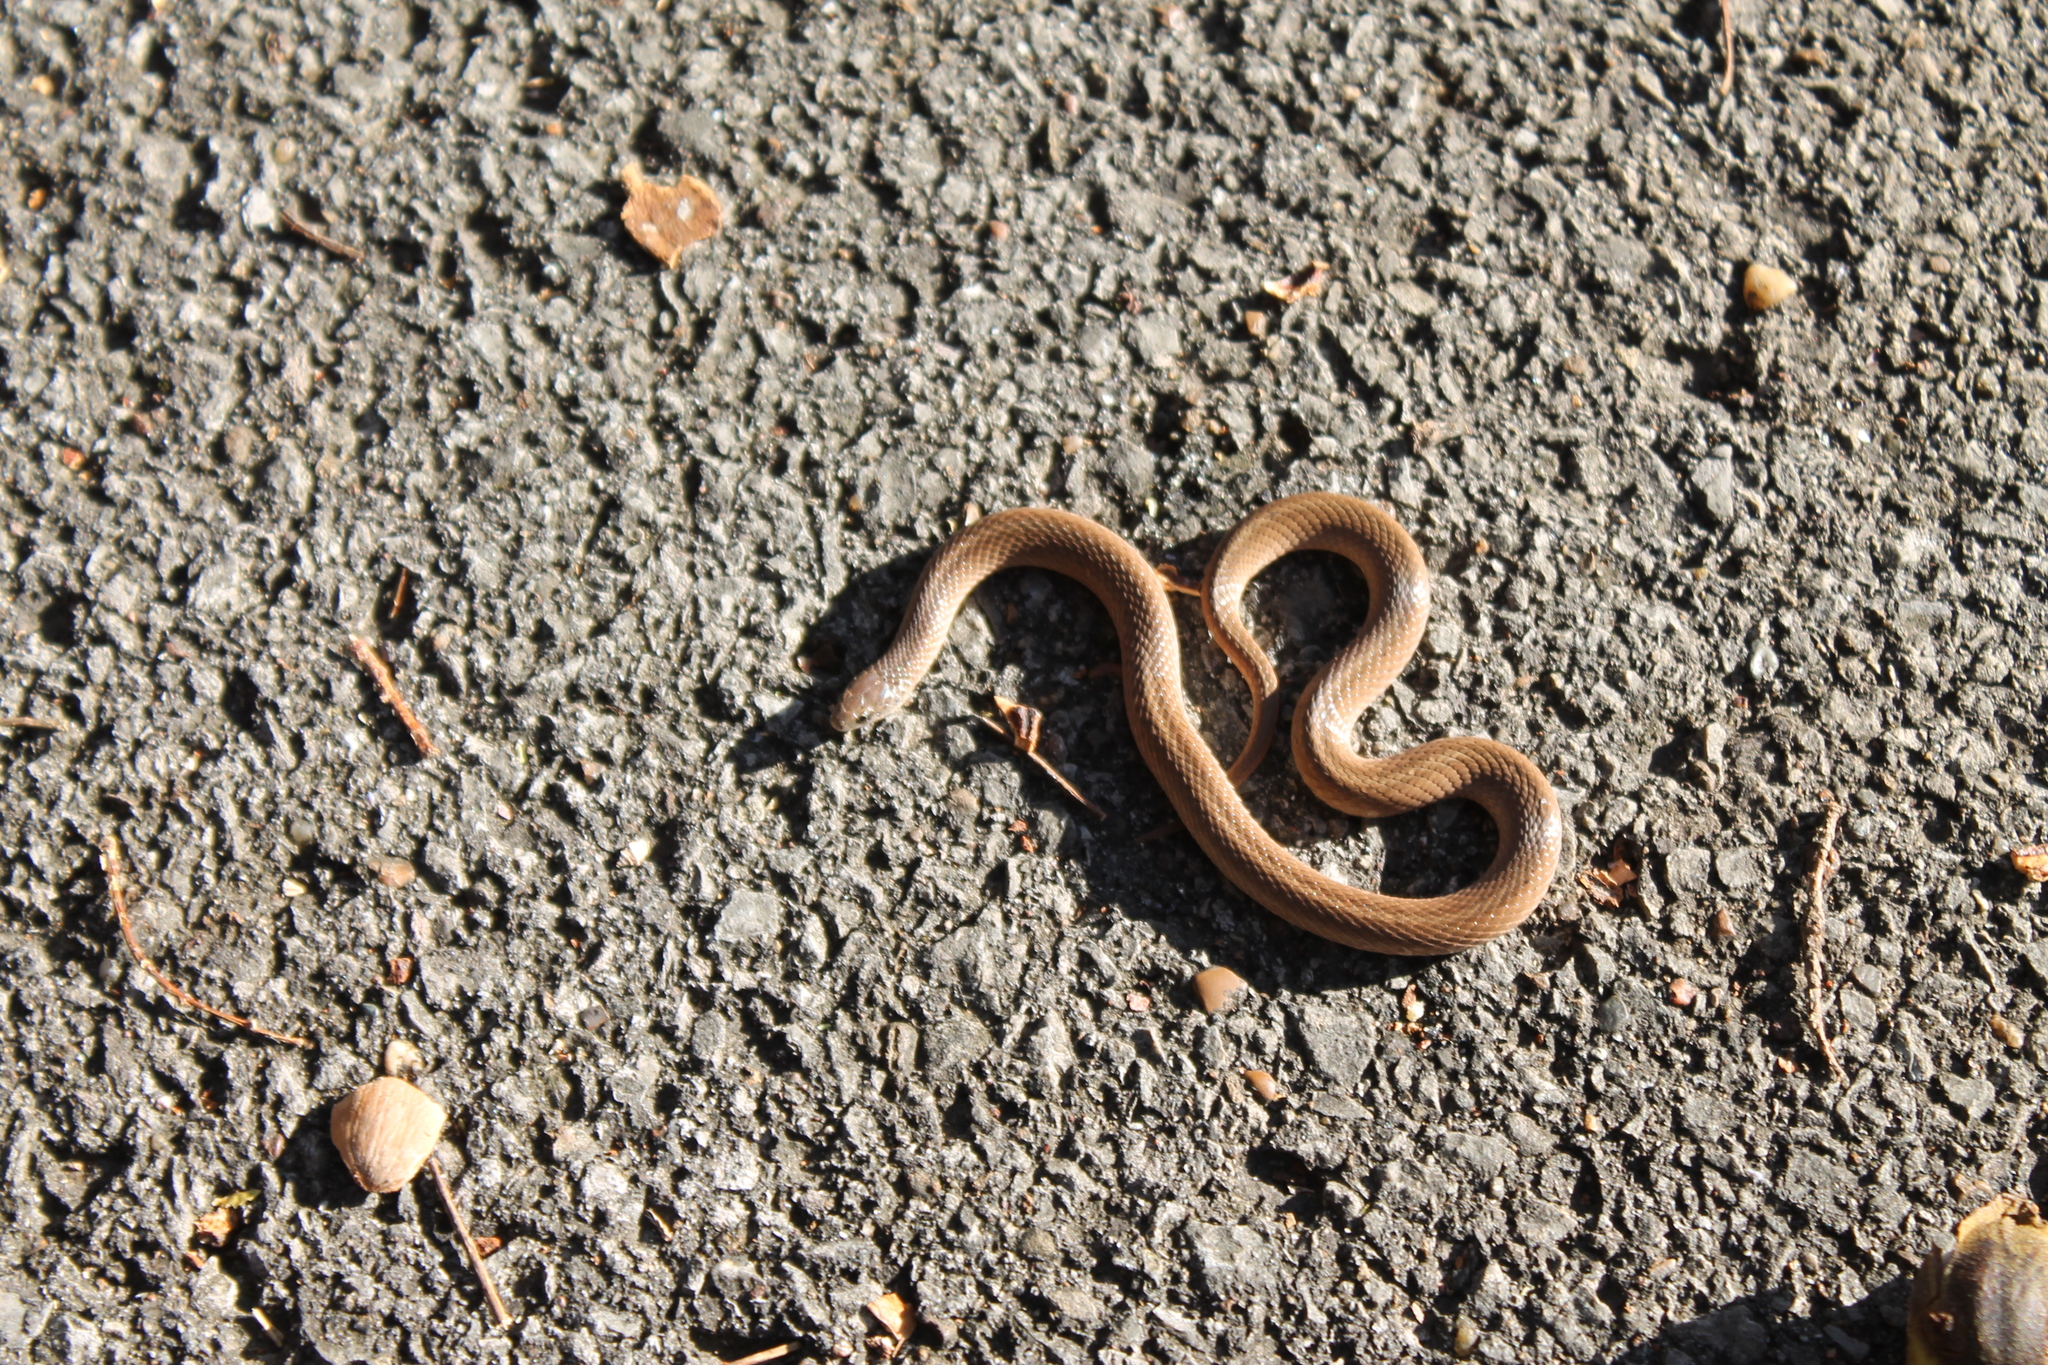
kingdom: Animalia
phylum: Chordata
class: Squamata
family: Colubridae
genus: Virginia
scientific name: Virginia valeriae
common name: Smooth earth snake
